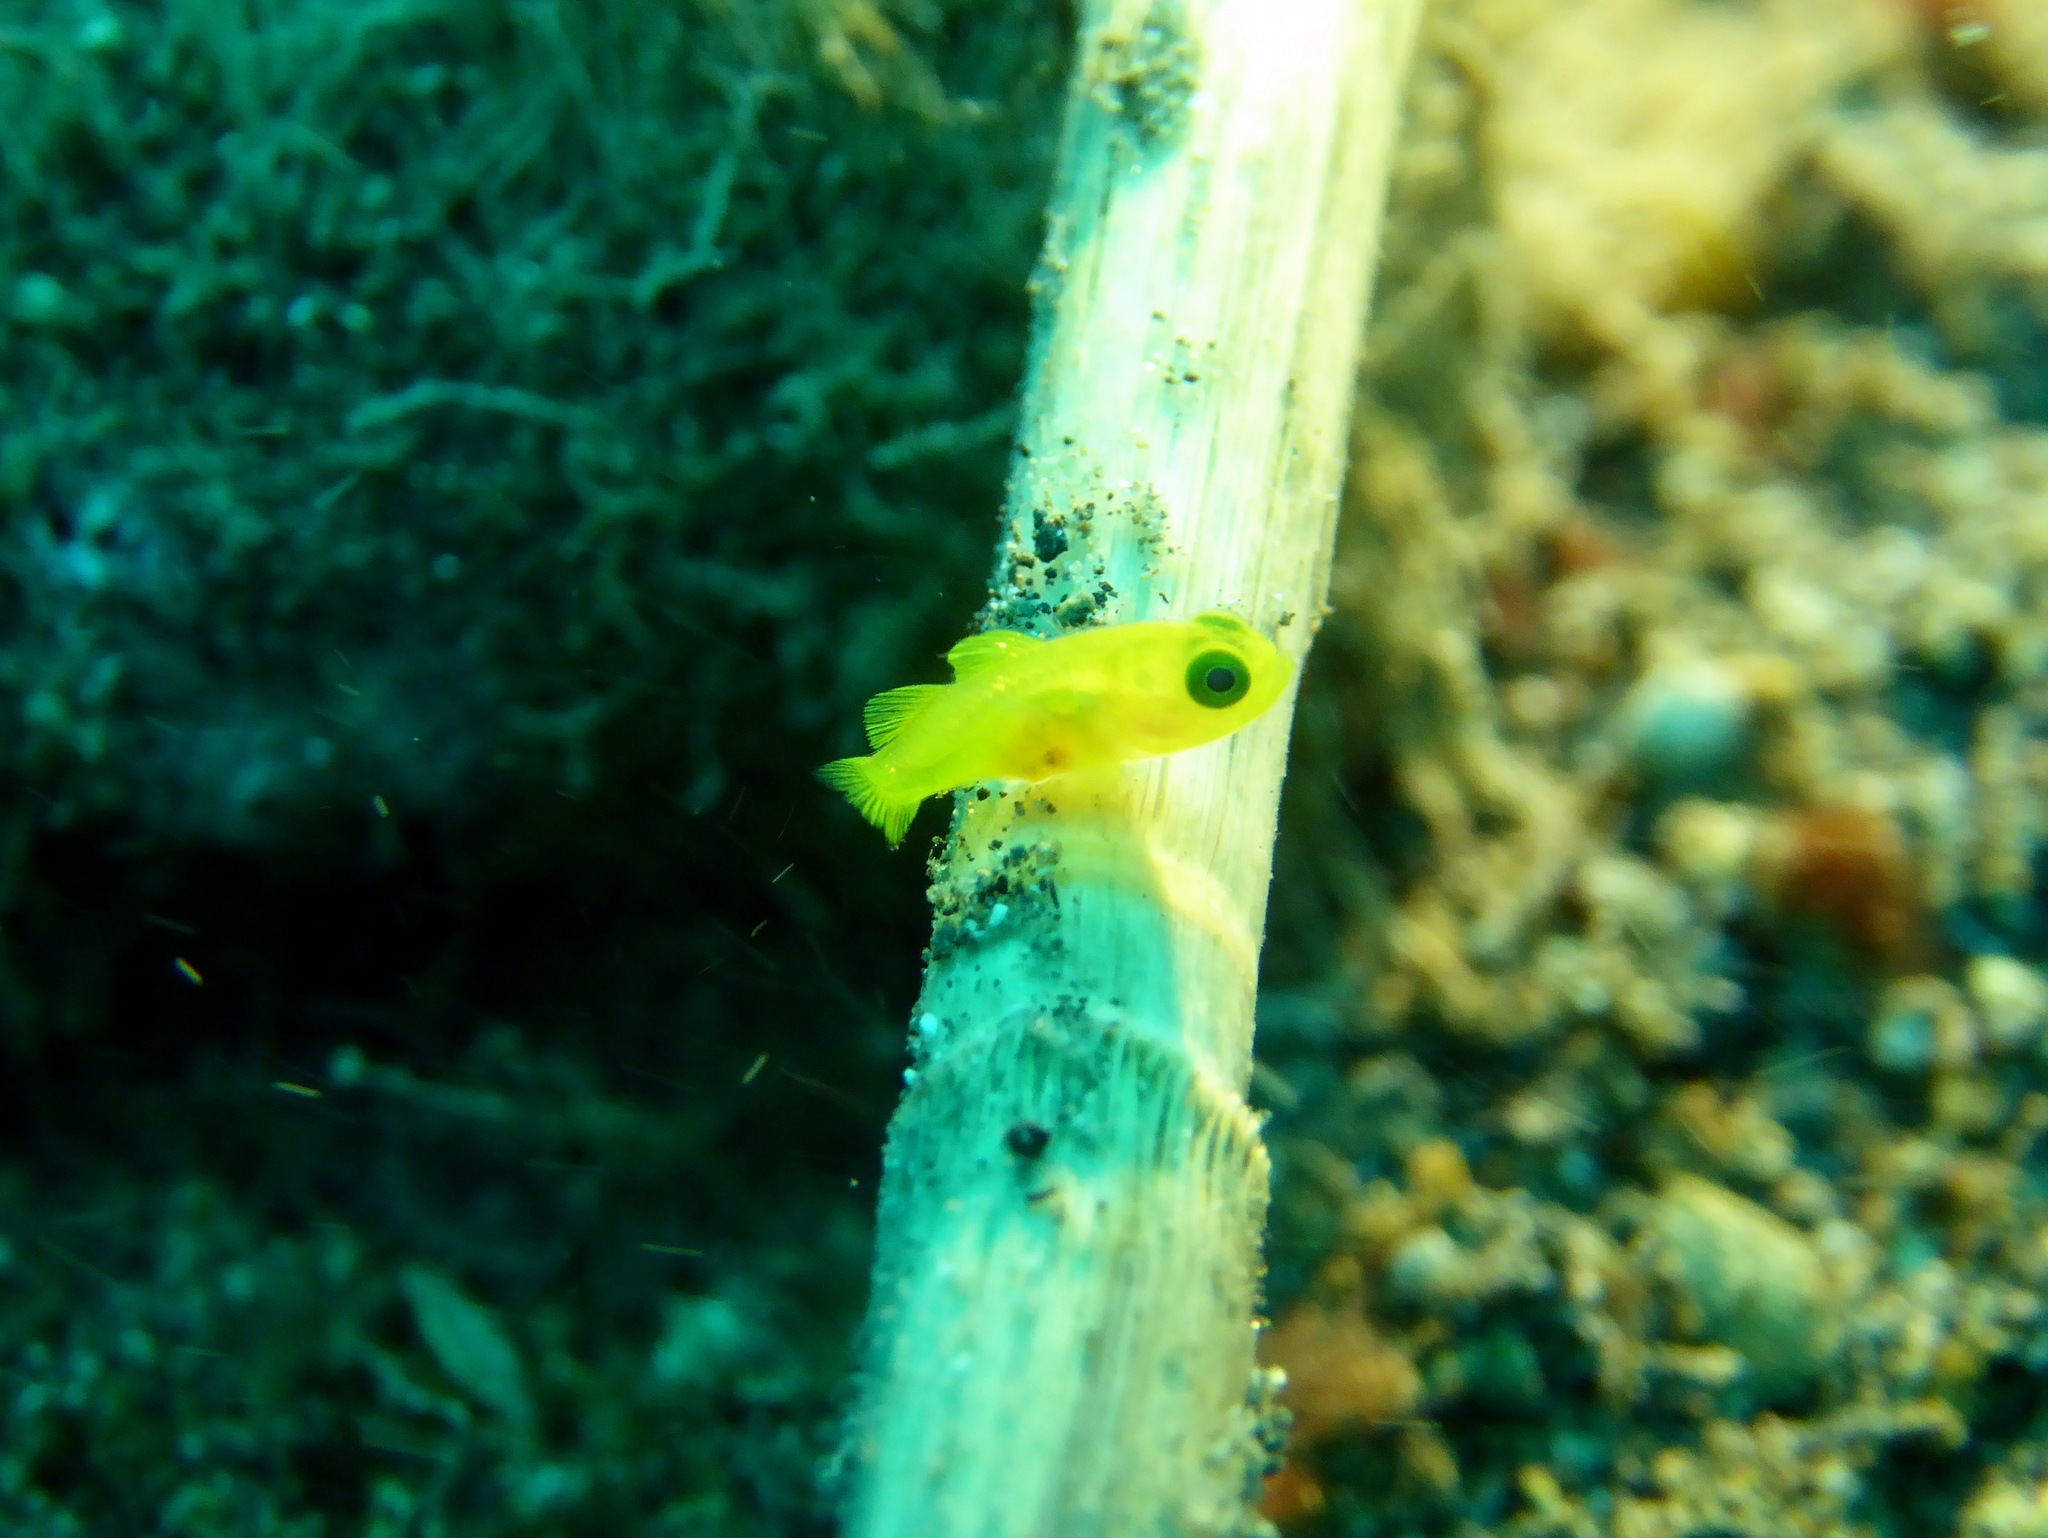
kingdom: Animalia
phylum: Chordata
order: Perciformes
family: Gobiidae
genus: Lubricogobius
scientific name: Lubricogobius exiguus
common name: Yellow pygmy-goby
